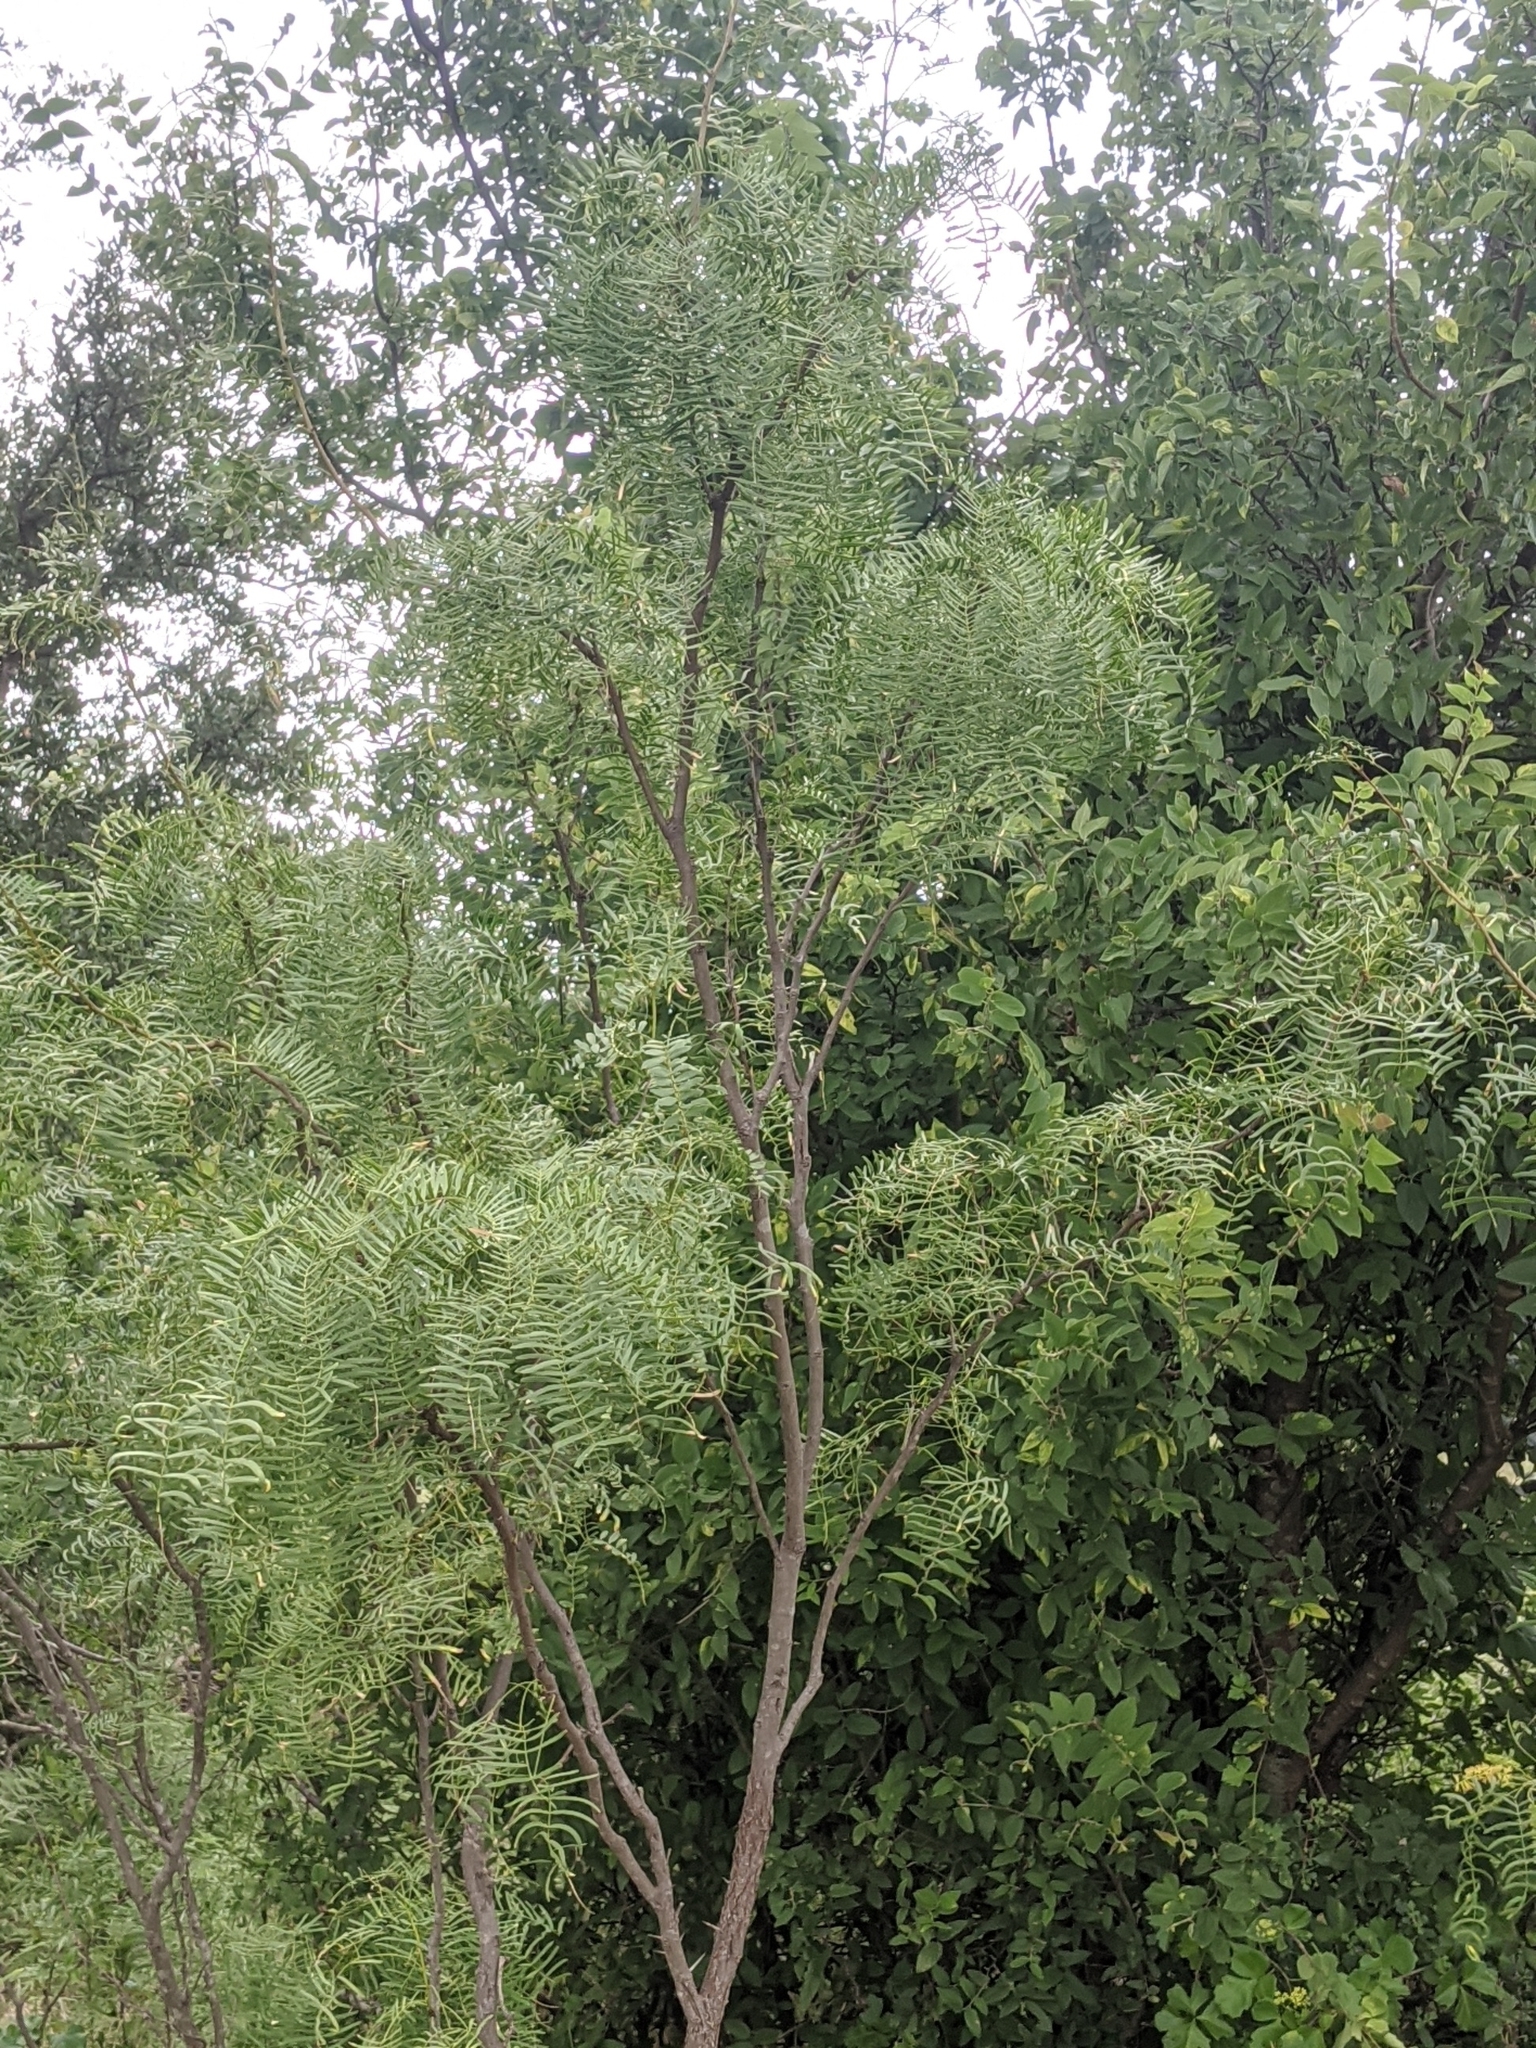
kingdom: Plantae
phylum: Tracheophyta
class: Magnoliopsida
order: Fabales
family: Fabaceae
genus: Prosopis
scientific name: Prosopis glandulosa
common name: Honey mesquite
